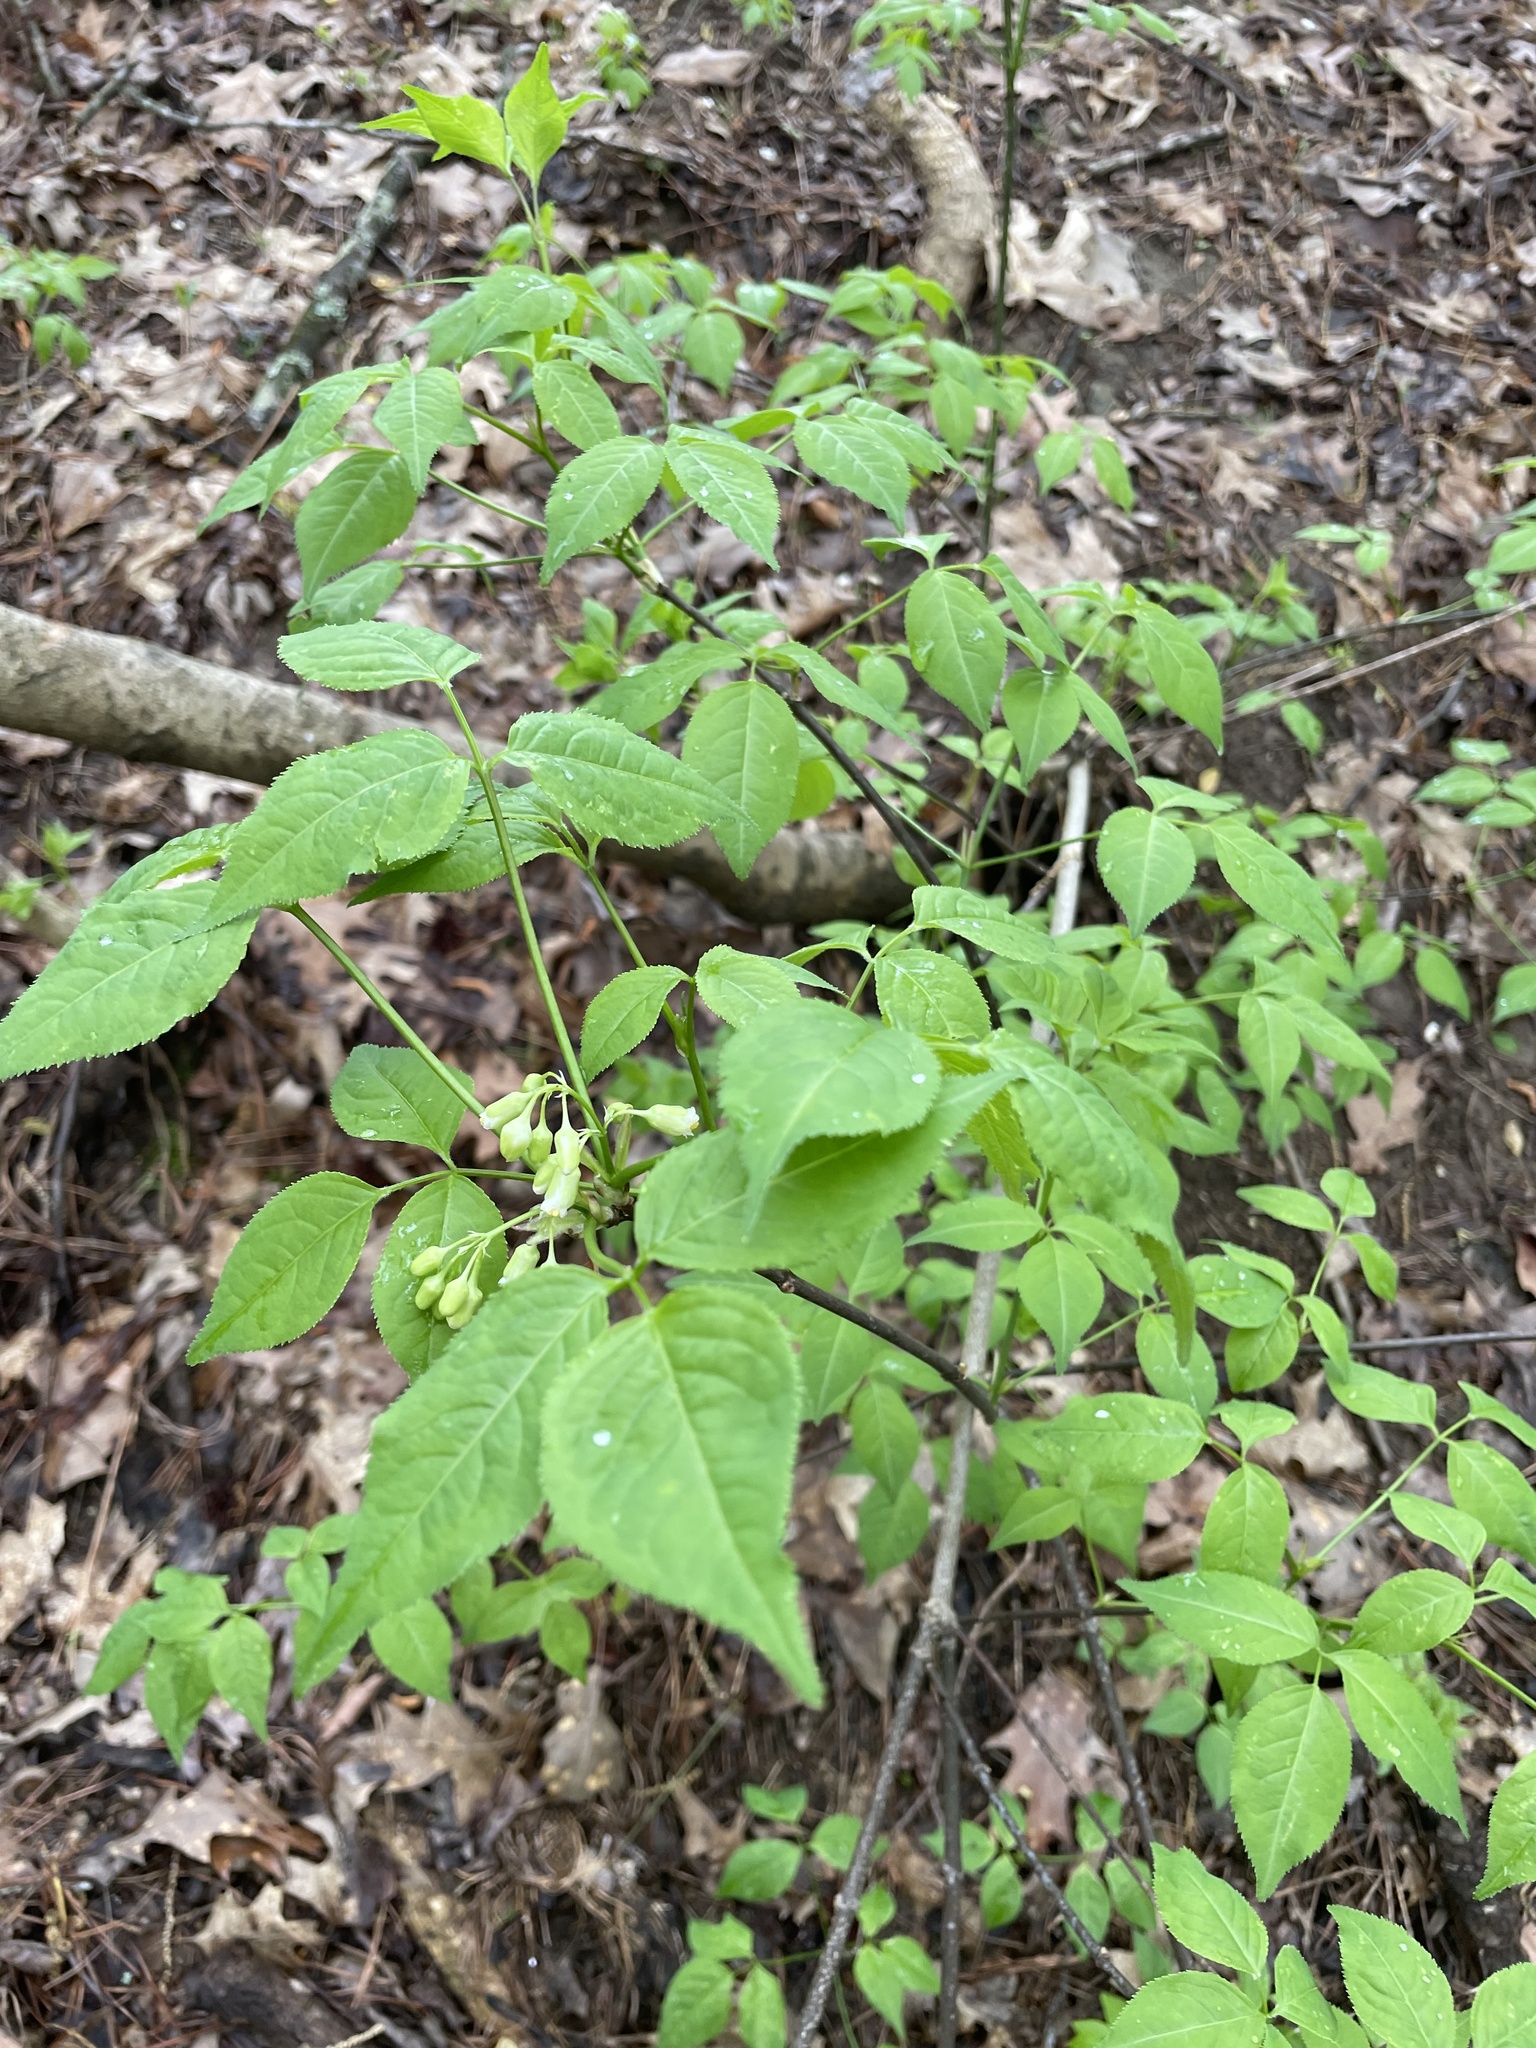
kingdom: Plantae
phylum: Tracheophyta
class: Magnoliopsida
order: Crossosomatales
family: Staphyleaceae
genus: Staphylea
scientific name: Staphylea trifolia
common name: American bladdernut
